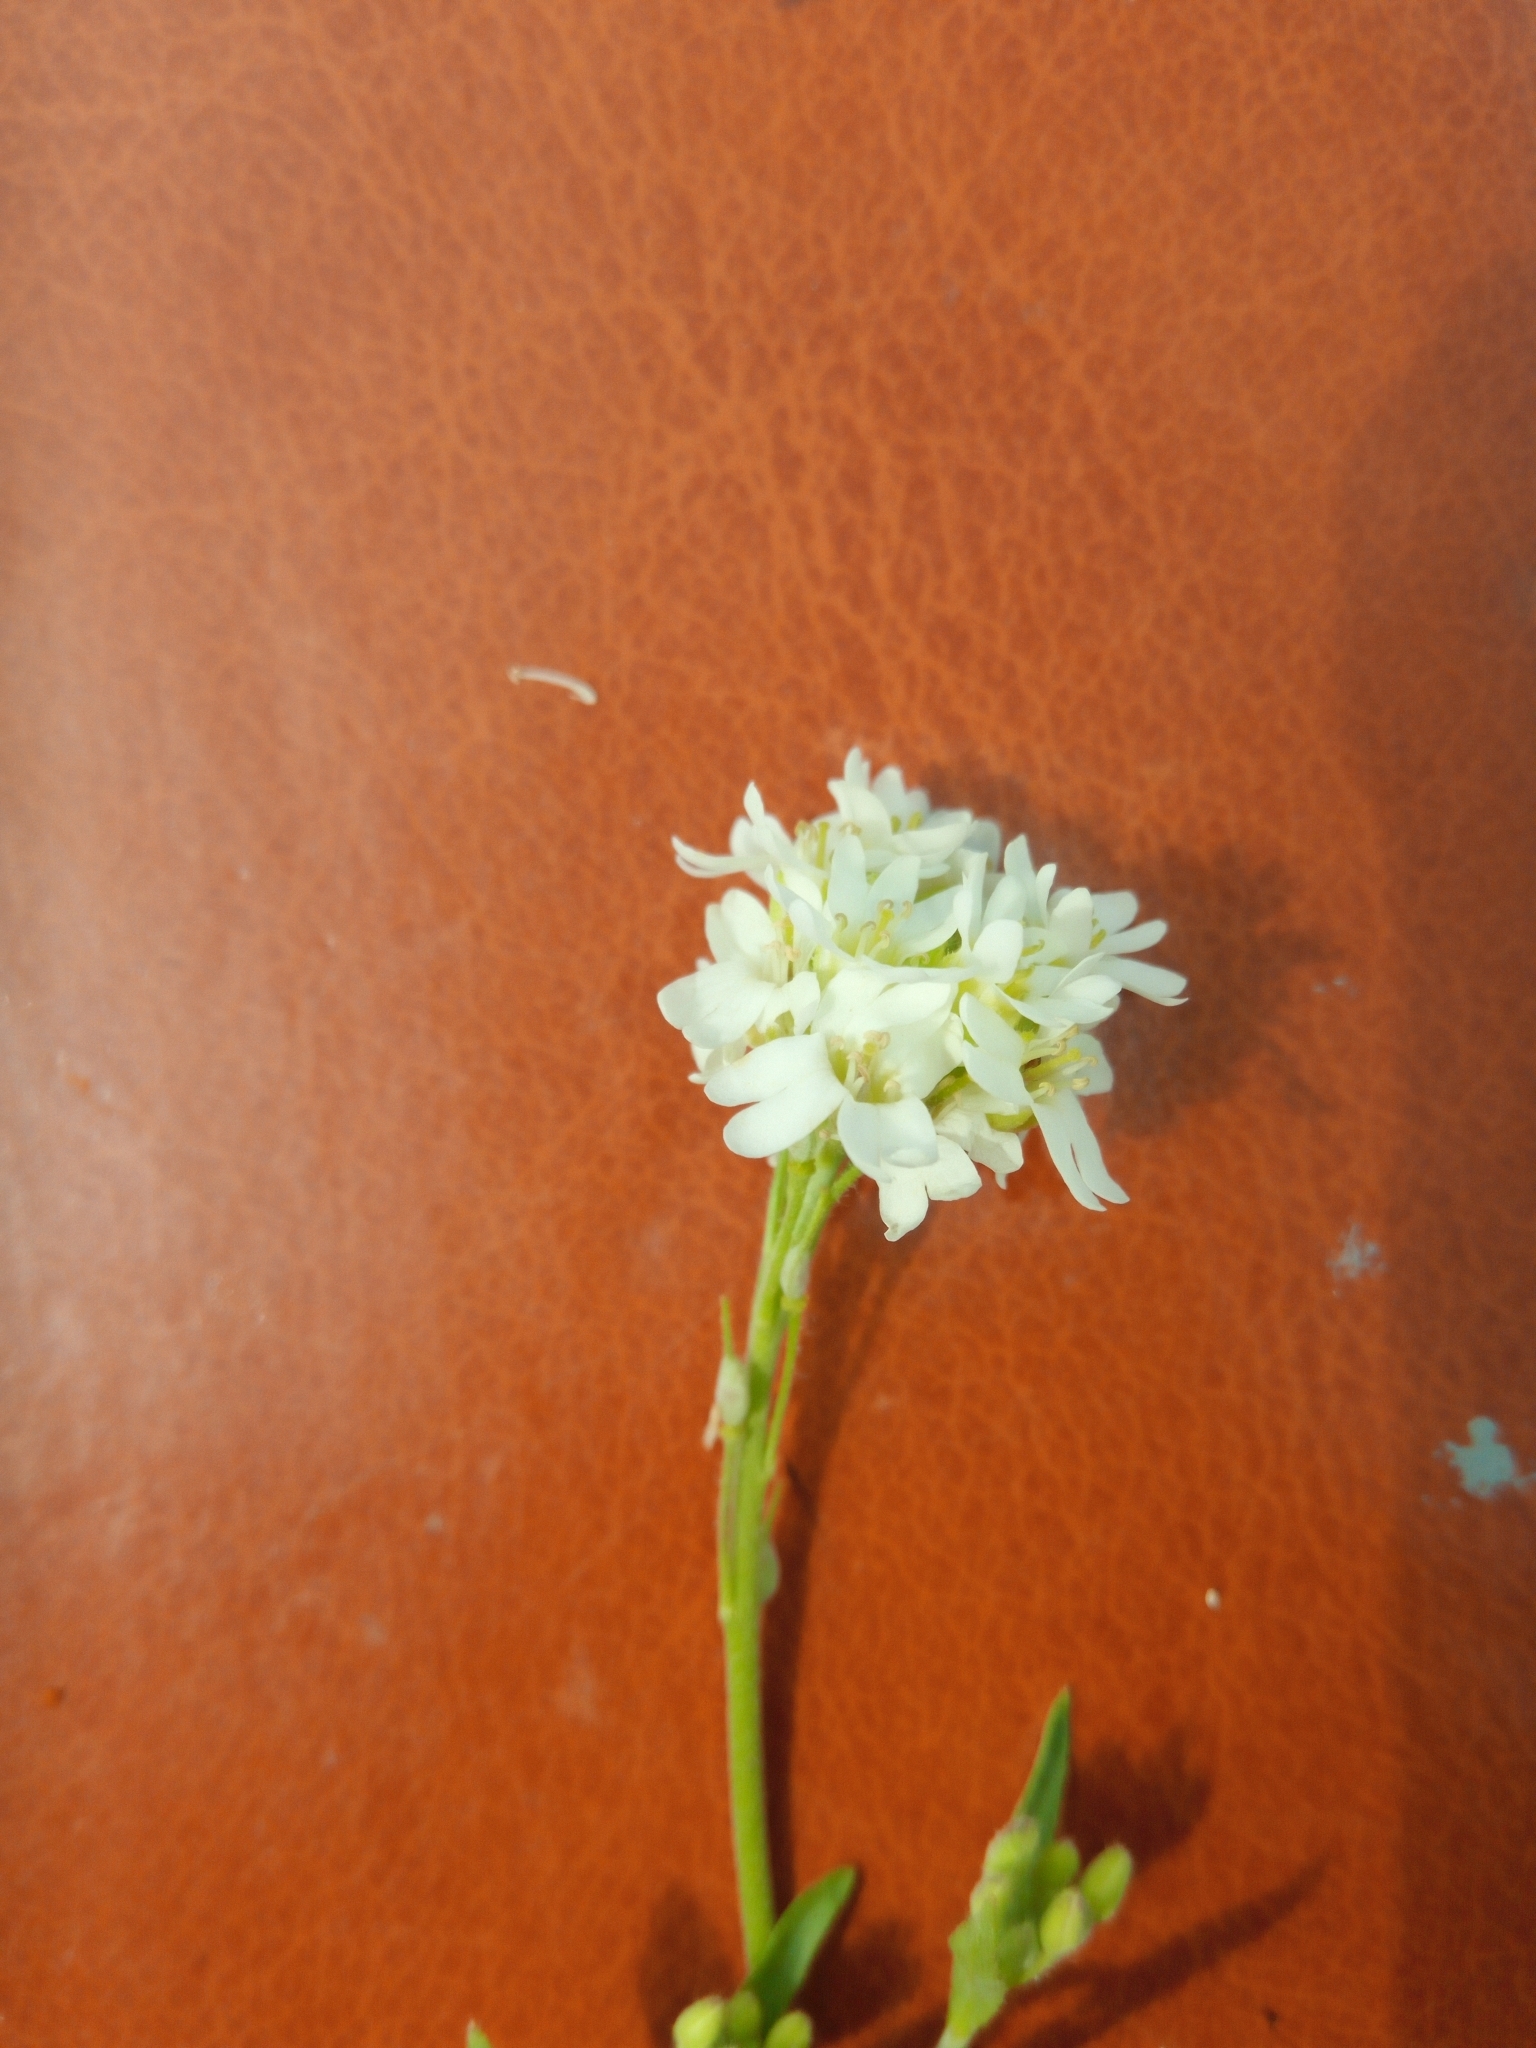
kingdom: Plantae
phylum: Tracheophyta
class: Magnoliopsida
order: Brassicales
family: Brassicaceae
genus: Berteroa
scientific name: Berteroa incana
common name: Hoary alison
